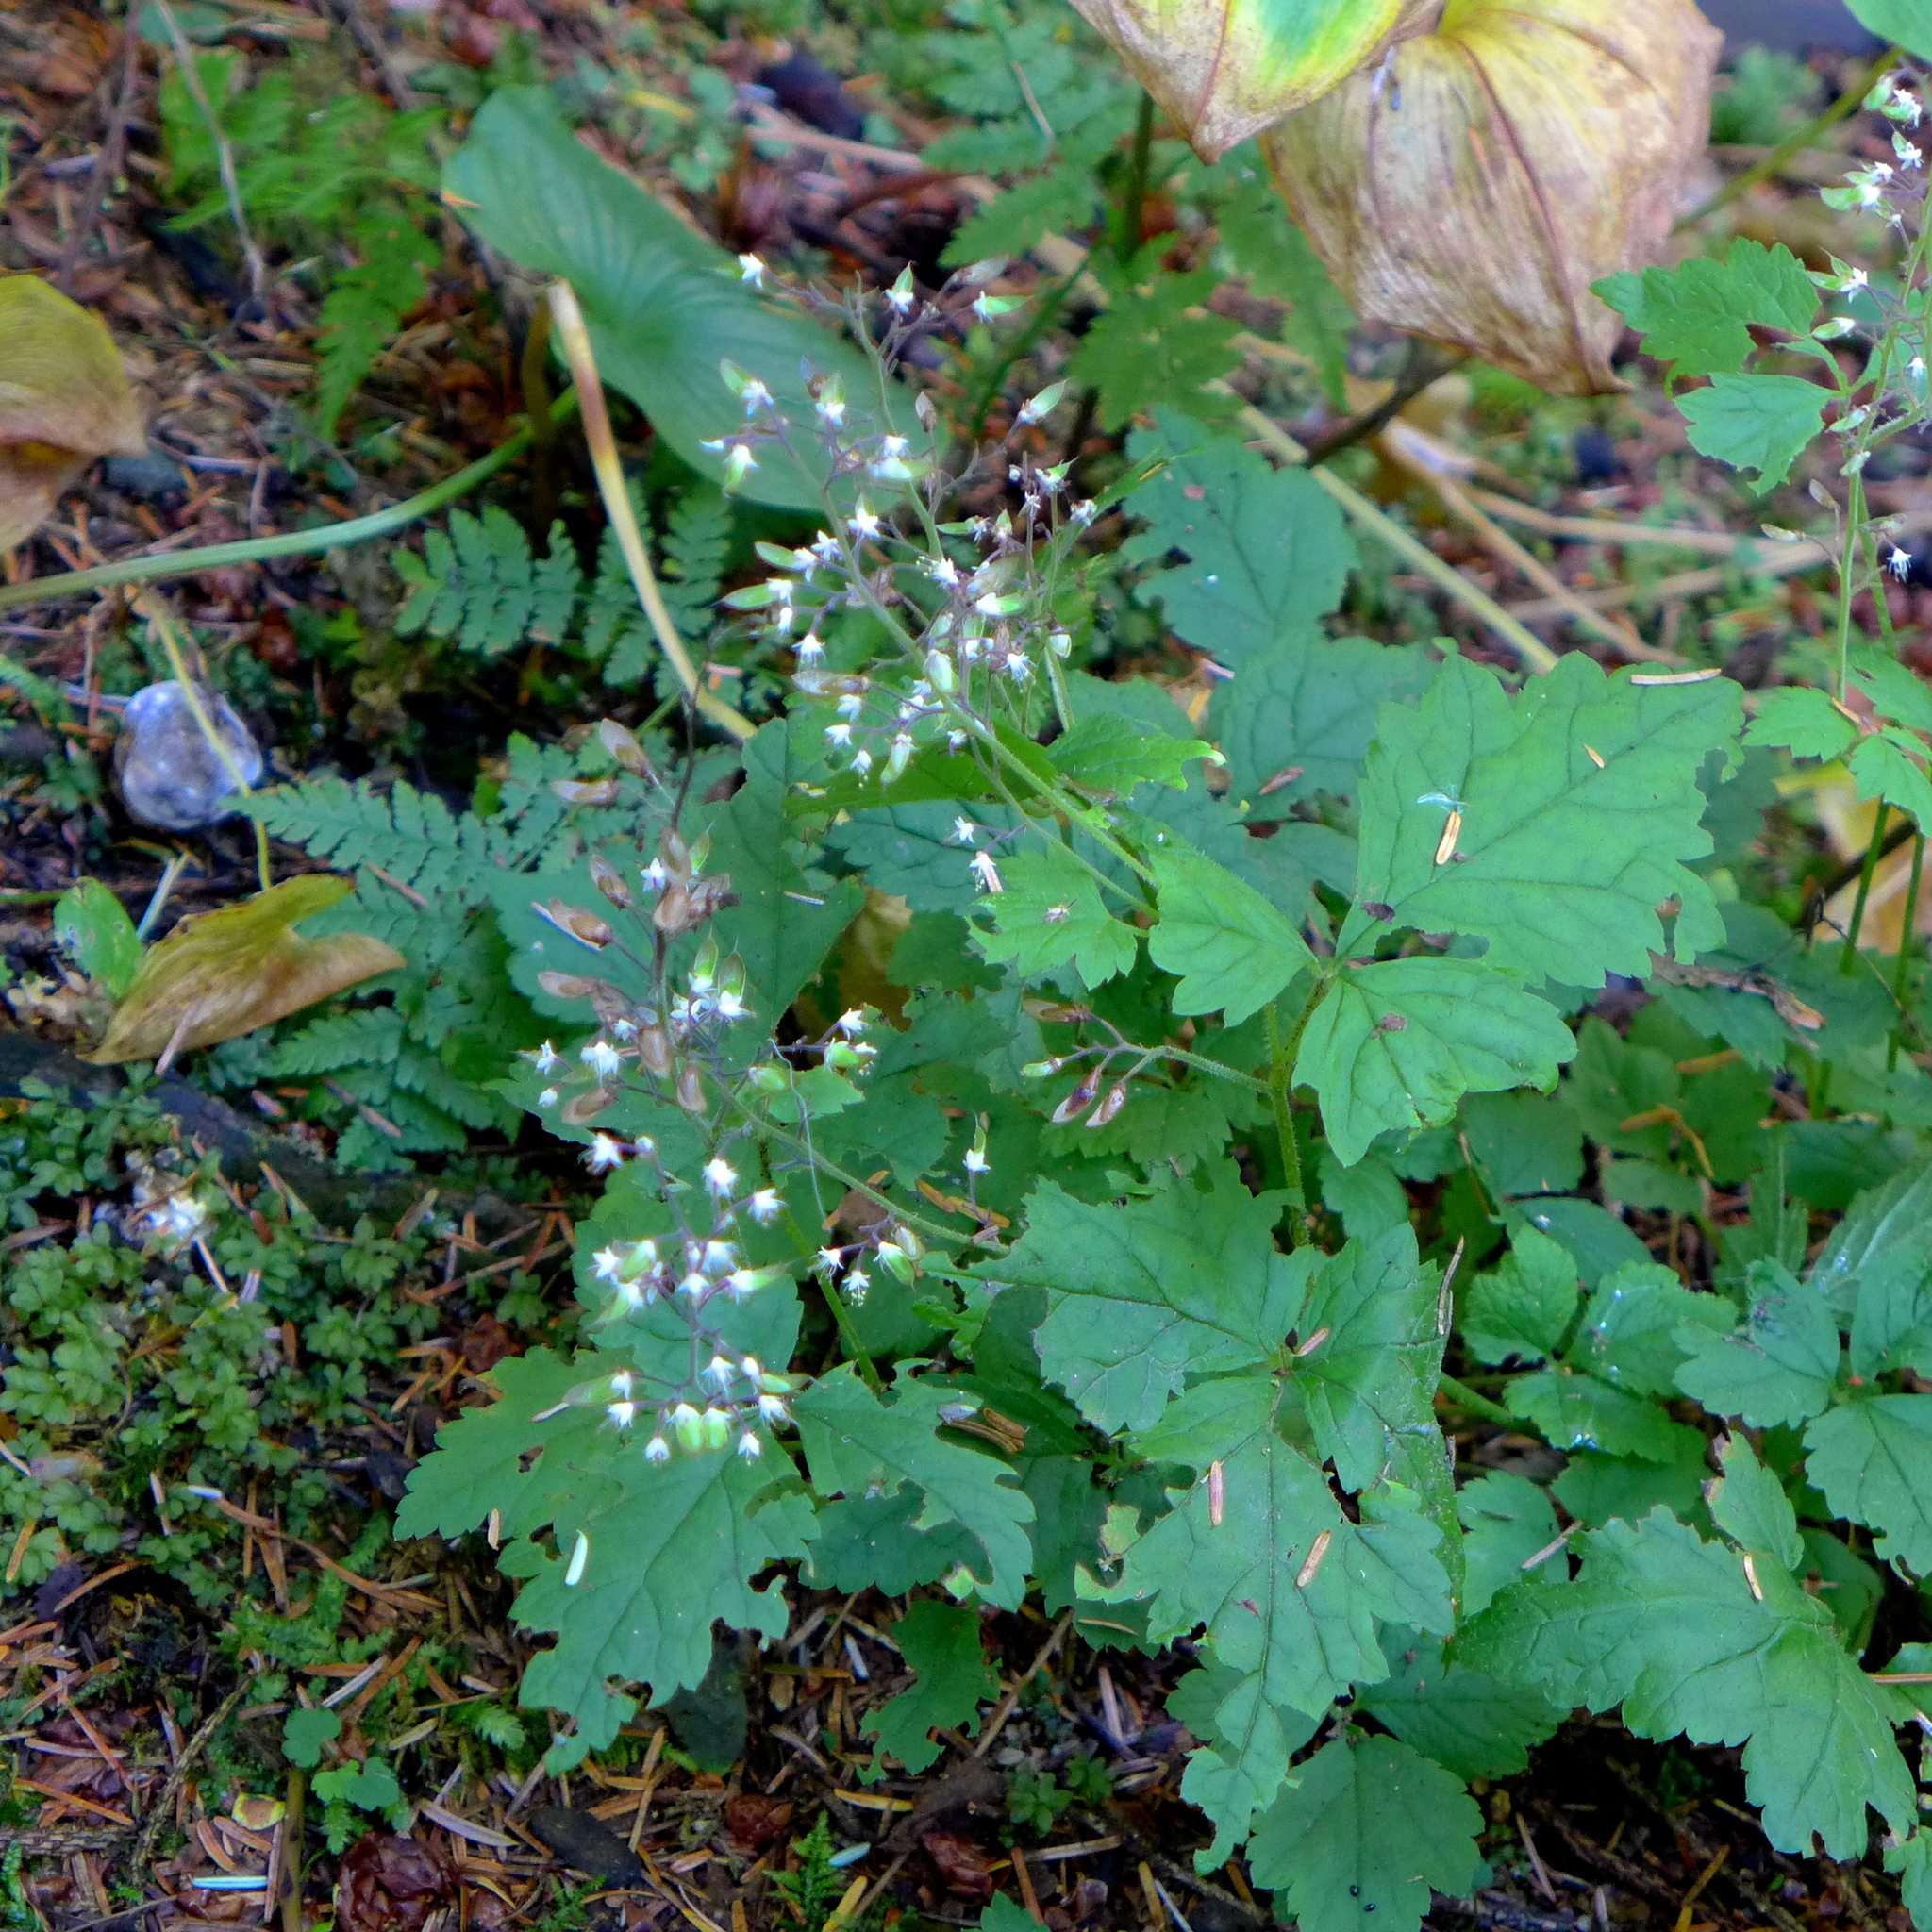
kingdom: Plantae
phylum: Tracheophyta
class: Magnoliopsida
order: Saxifragales
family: Saxifragaceae
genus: Tiarella
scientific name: Tiarella trifoliata
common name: Sugar-scoop
